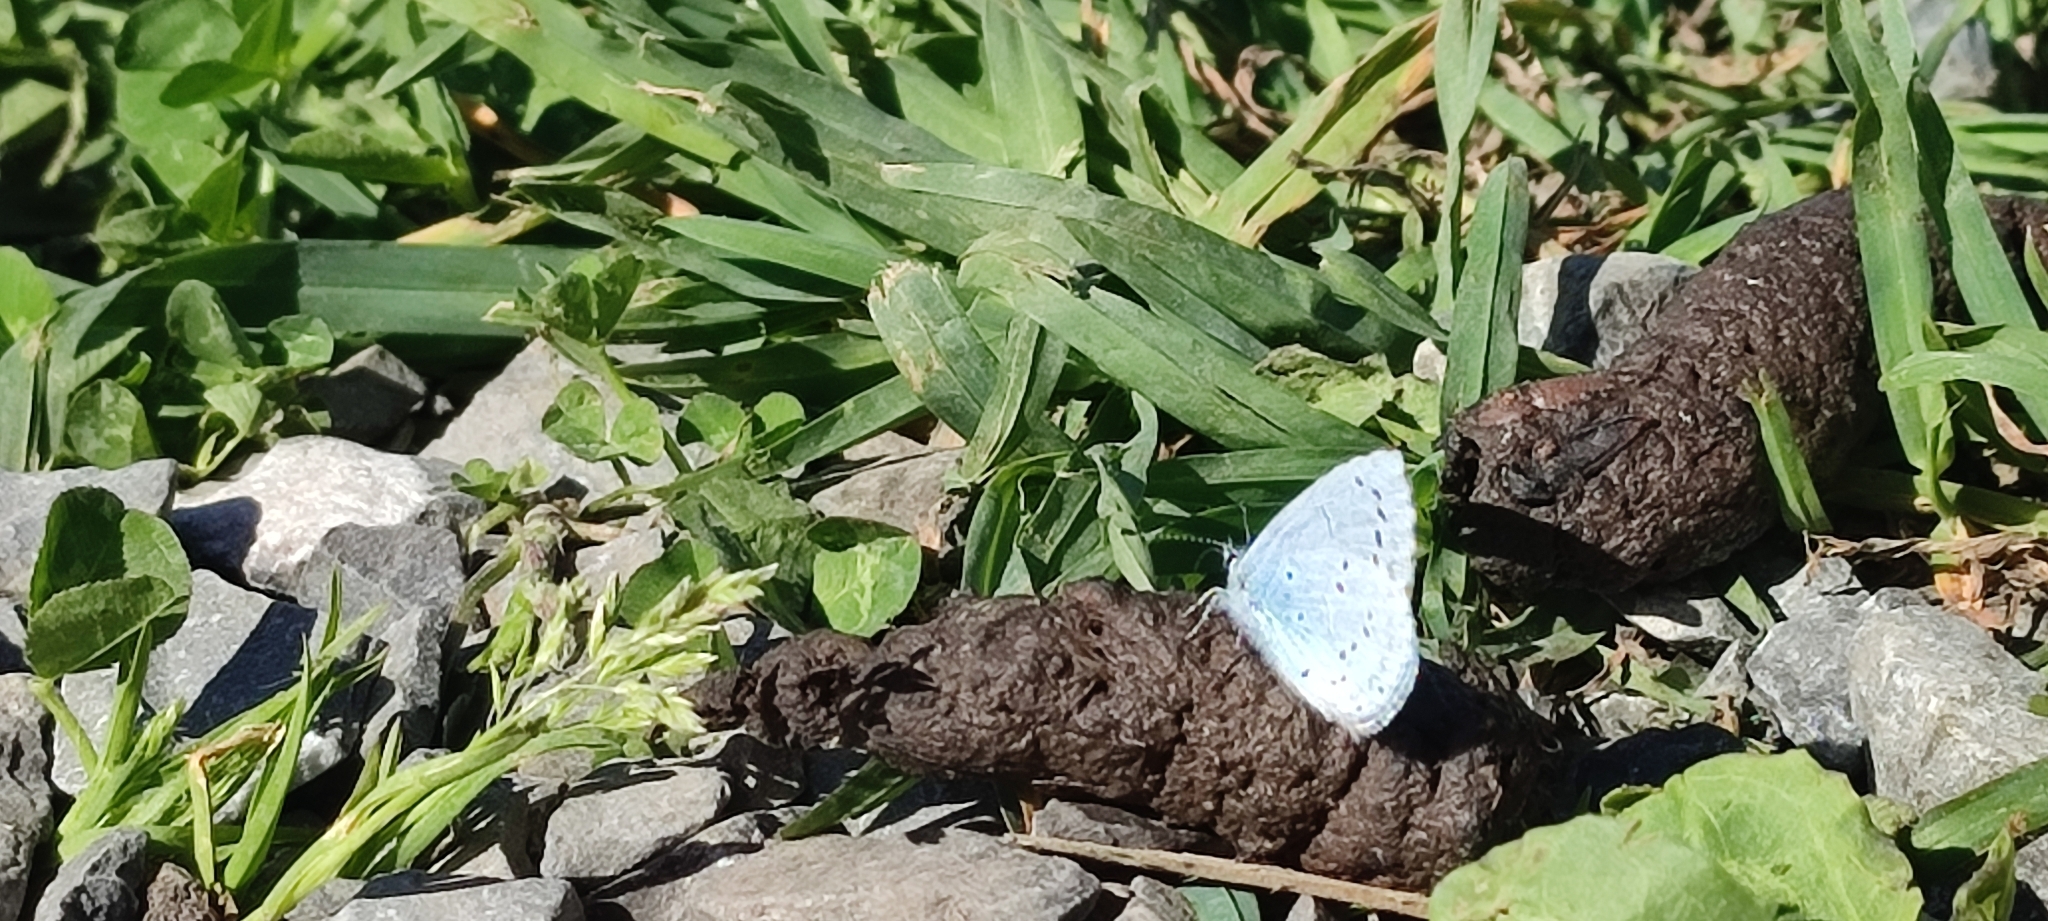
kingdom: Animalia
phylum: Arthropoda
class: Insecta
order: Lepidoptera
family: Lycaenidae
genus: Celastrina
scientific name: Celastrina argiolus
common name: Holly blue
